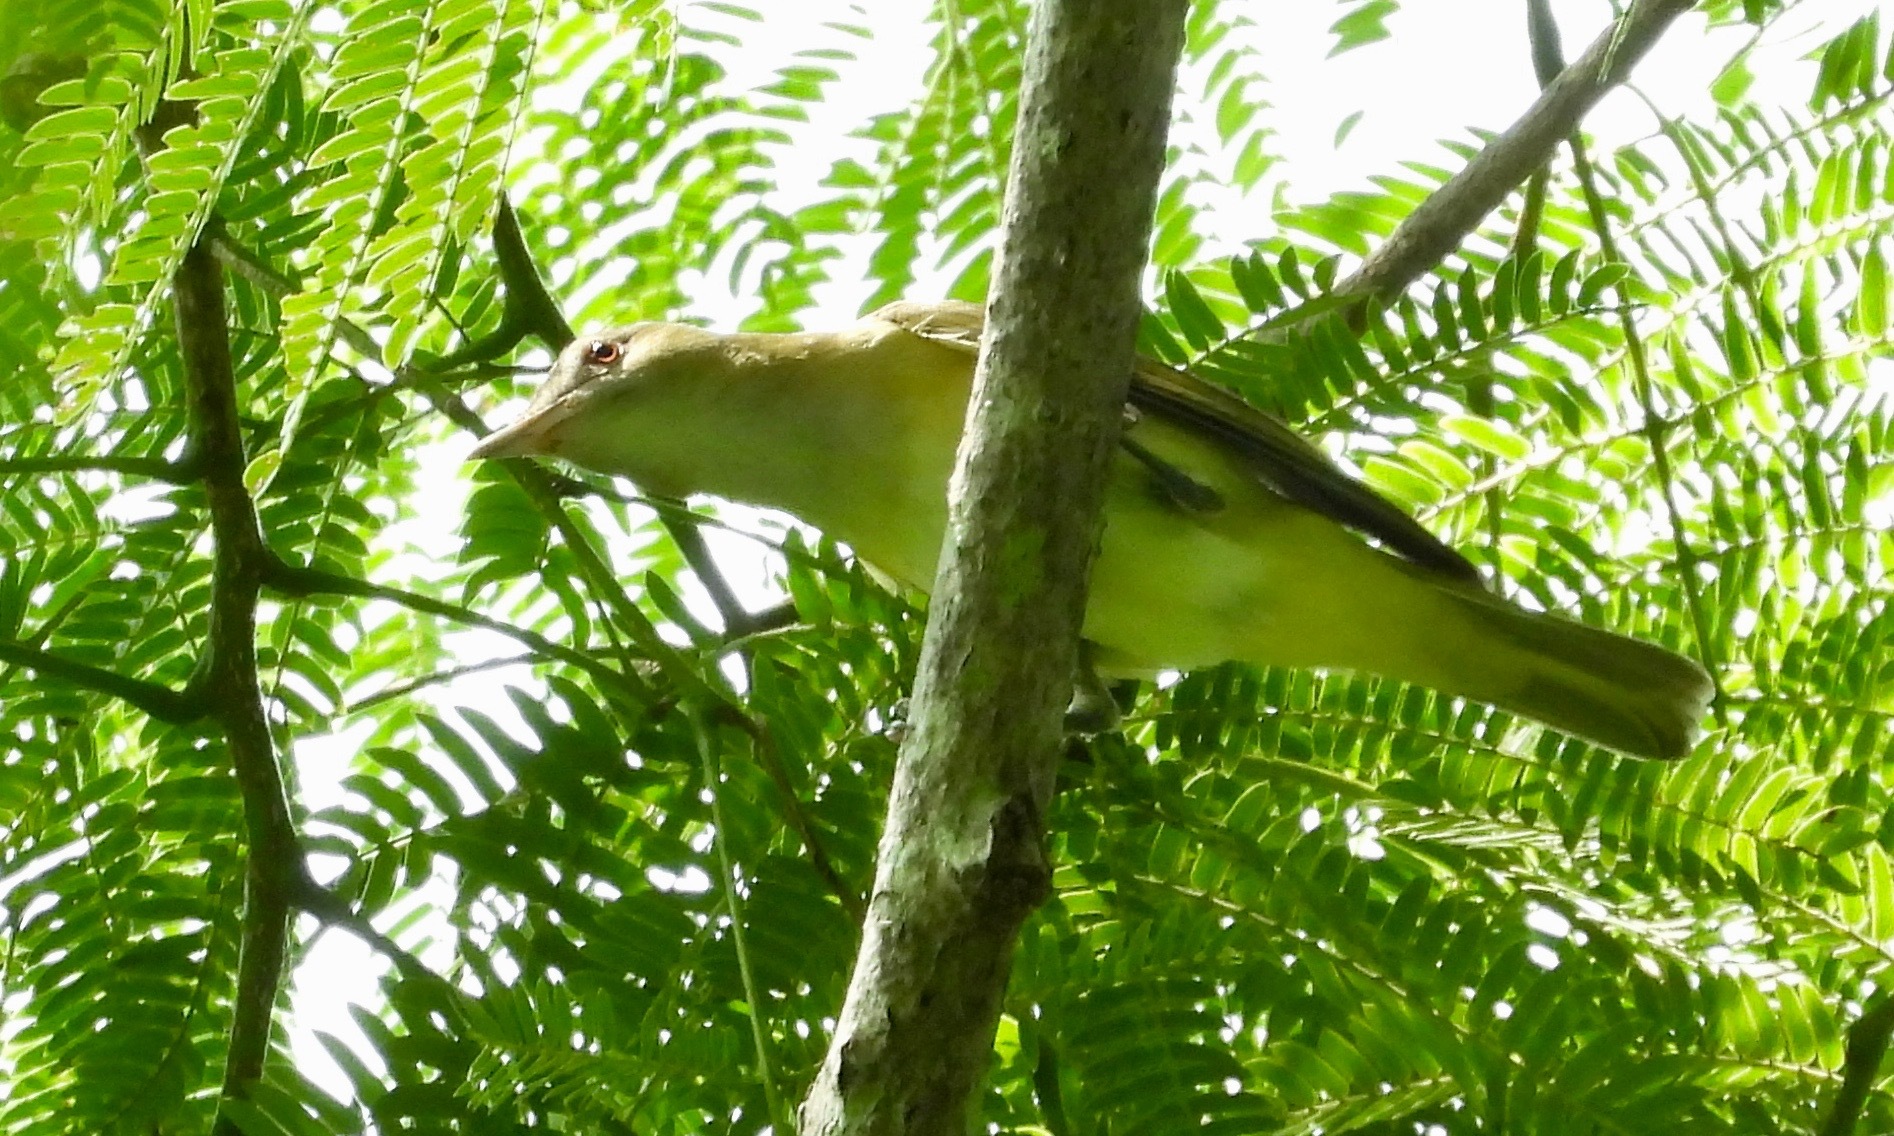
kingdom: Animalia
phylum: Chordata
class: Aves
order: Passeriformes
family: Vireonidae
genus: Vireo
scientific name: Vireo flavoviridis
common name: Yellow-green vireo
